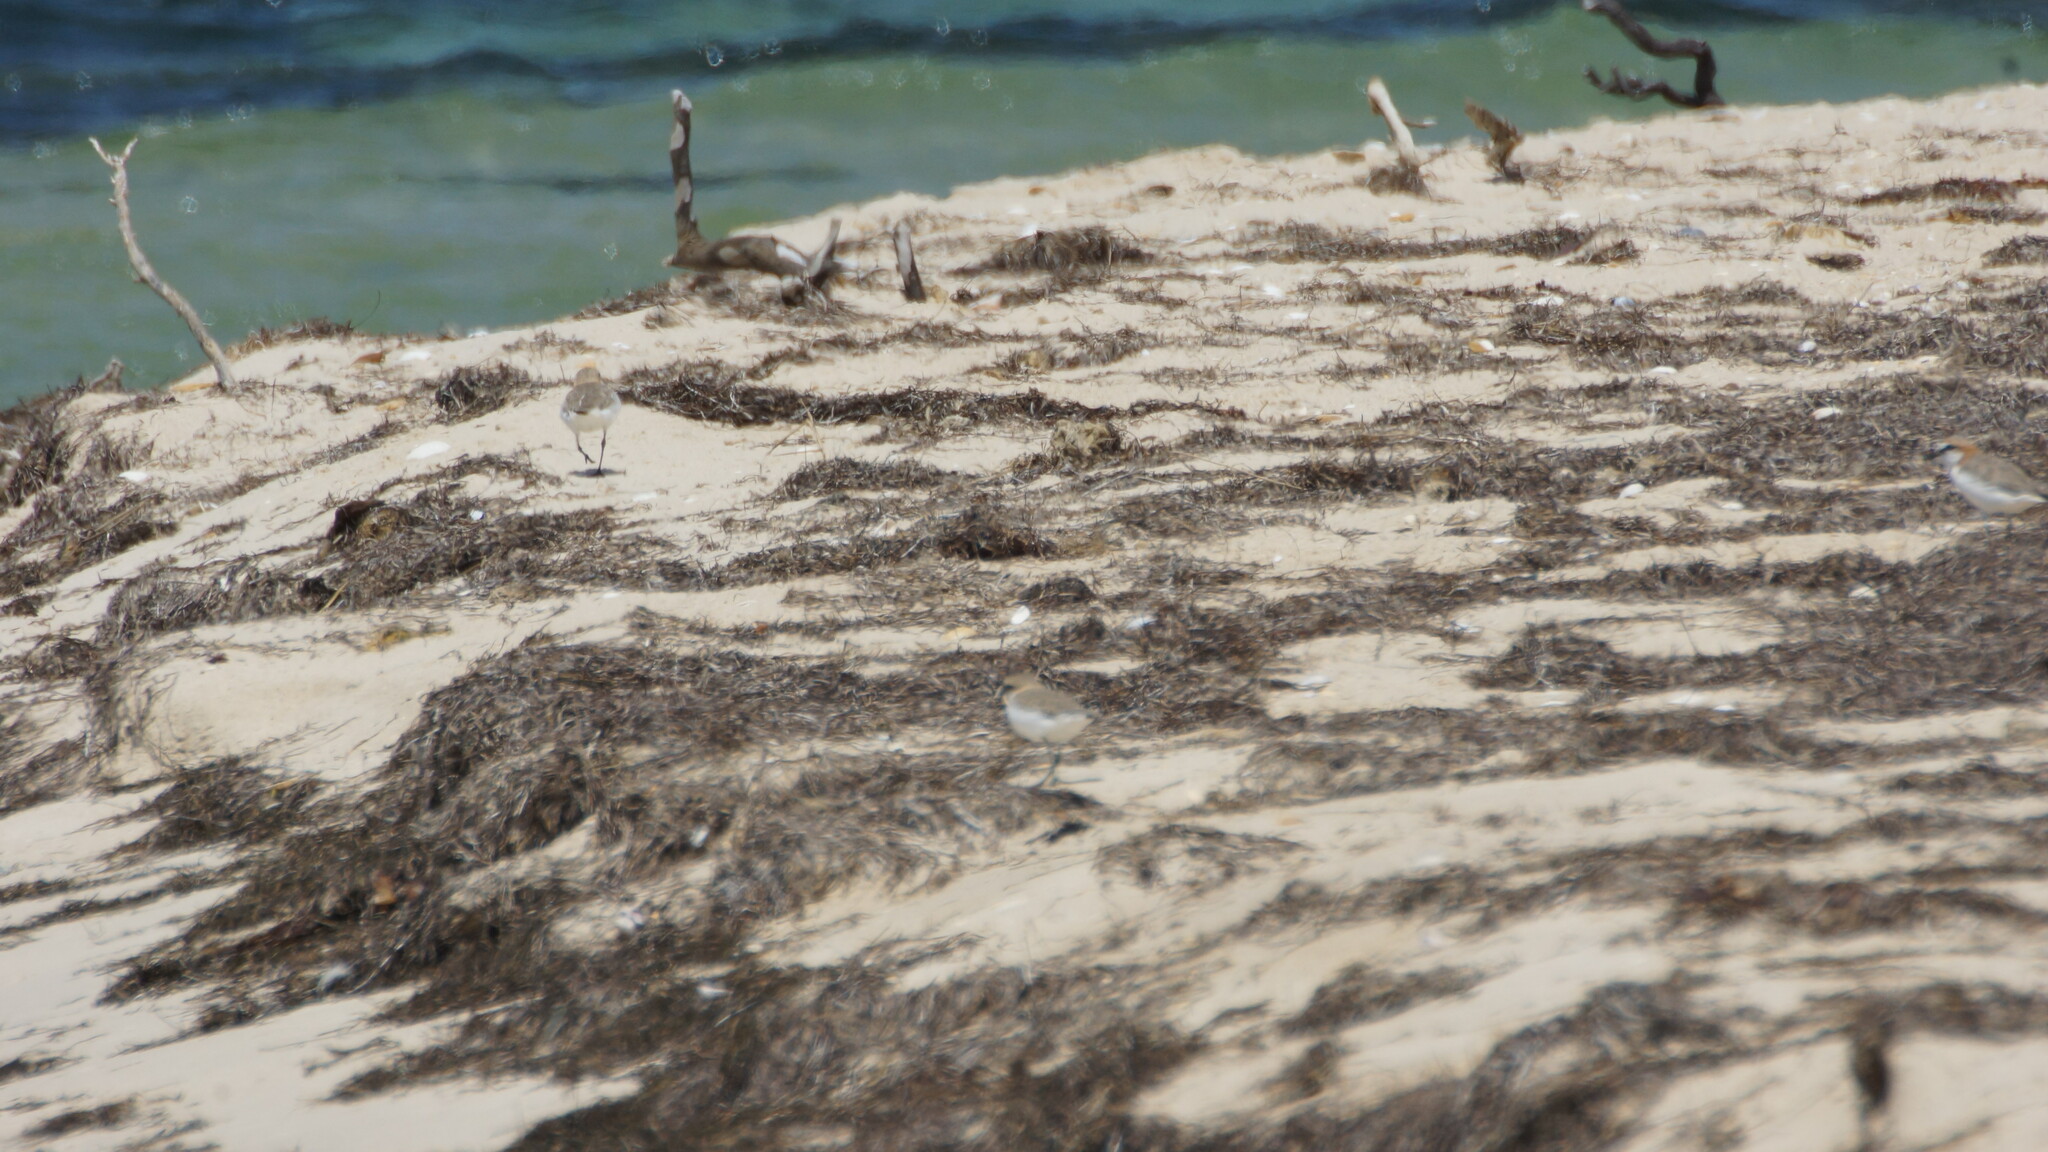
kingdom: Animalia
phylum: Chordata
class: Aves
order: Charadriiformes
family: Charadriidae
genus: Anarhynchus
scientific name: Anarhynchus
